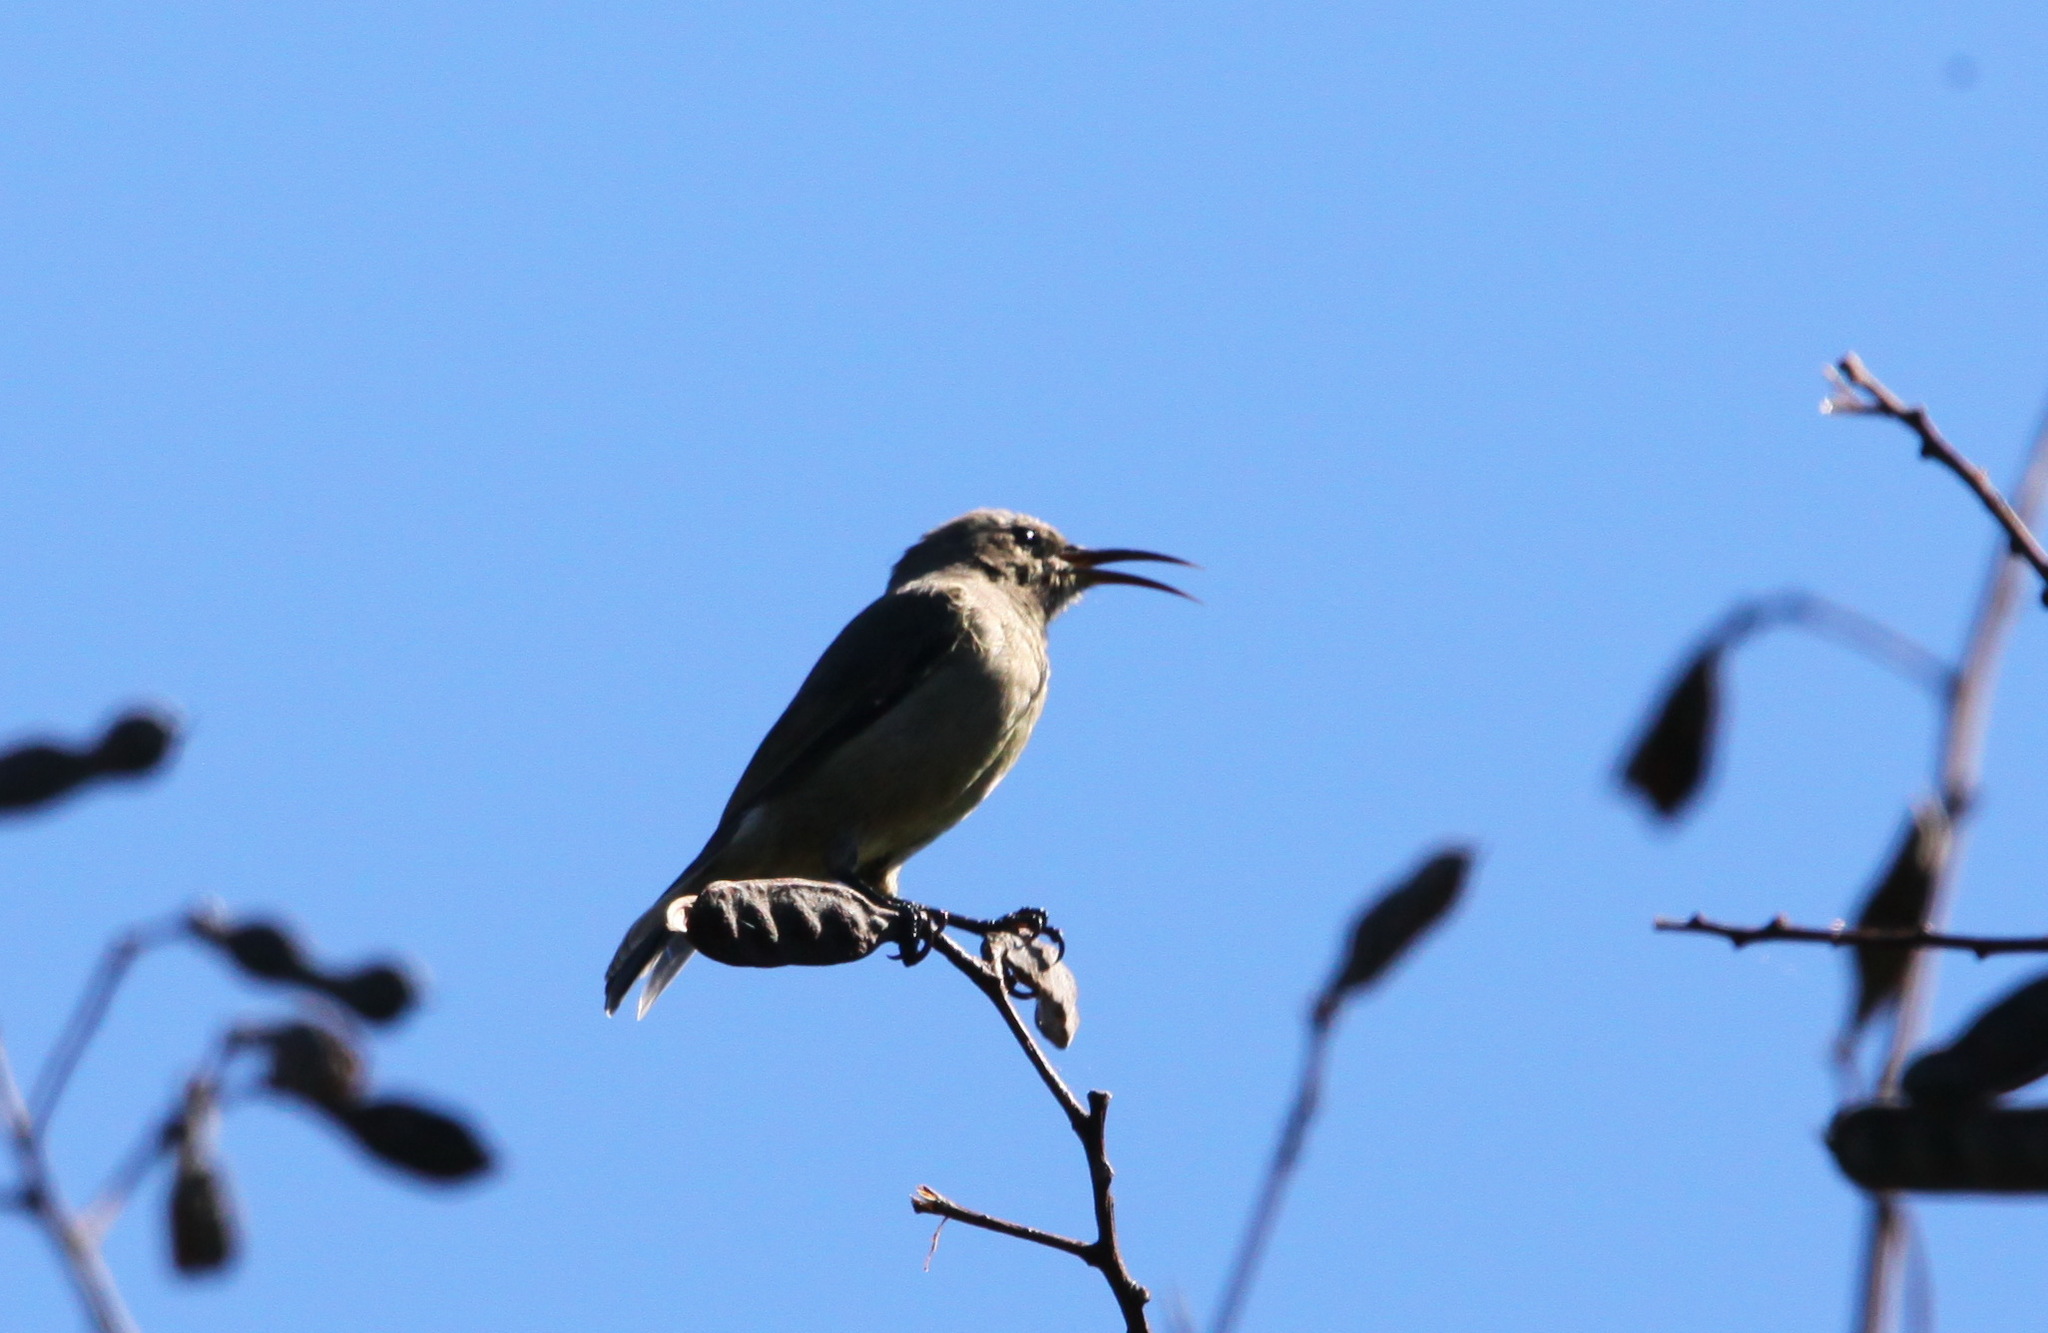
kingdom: Animalia
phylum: Chordata
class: Aves
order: Passeriformes
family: Nectariniidae
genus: Cinnyris
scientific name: Cinnyris afer
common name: Greater double-collared sunbird
